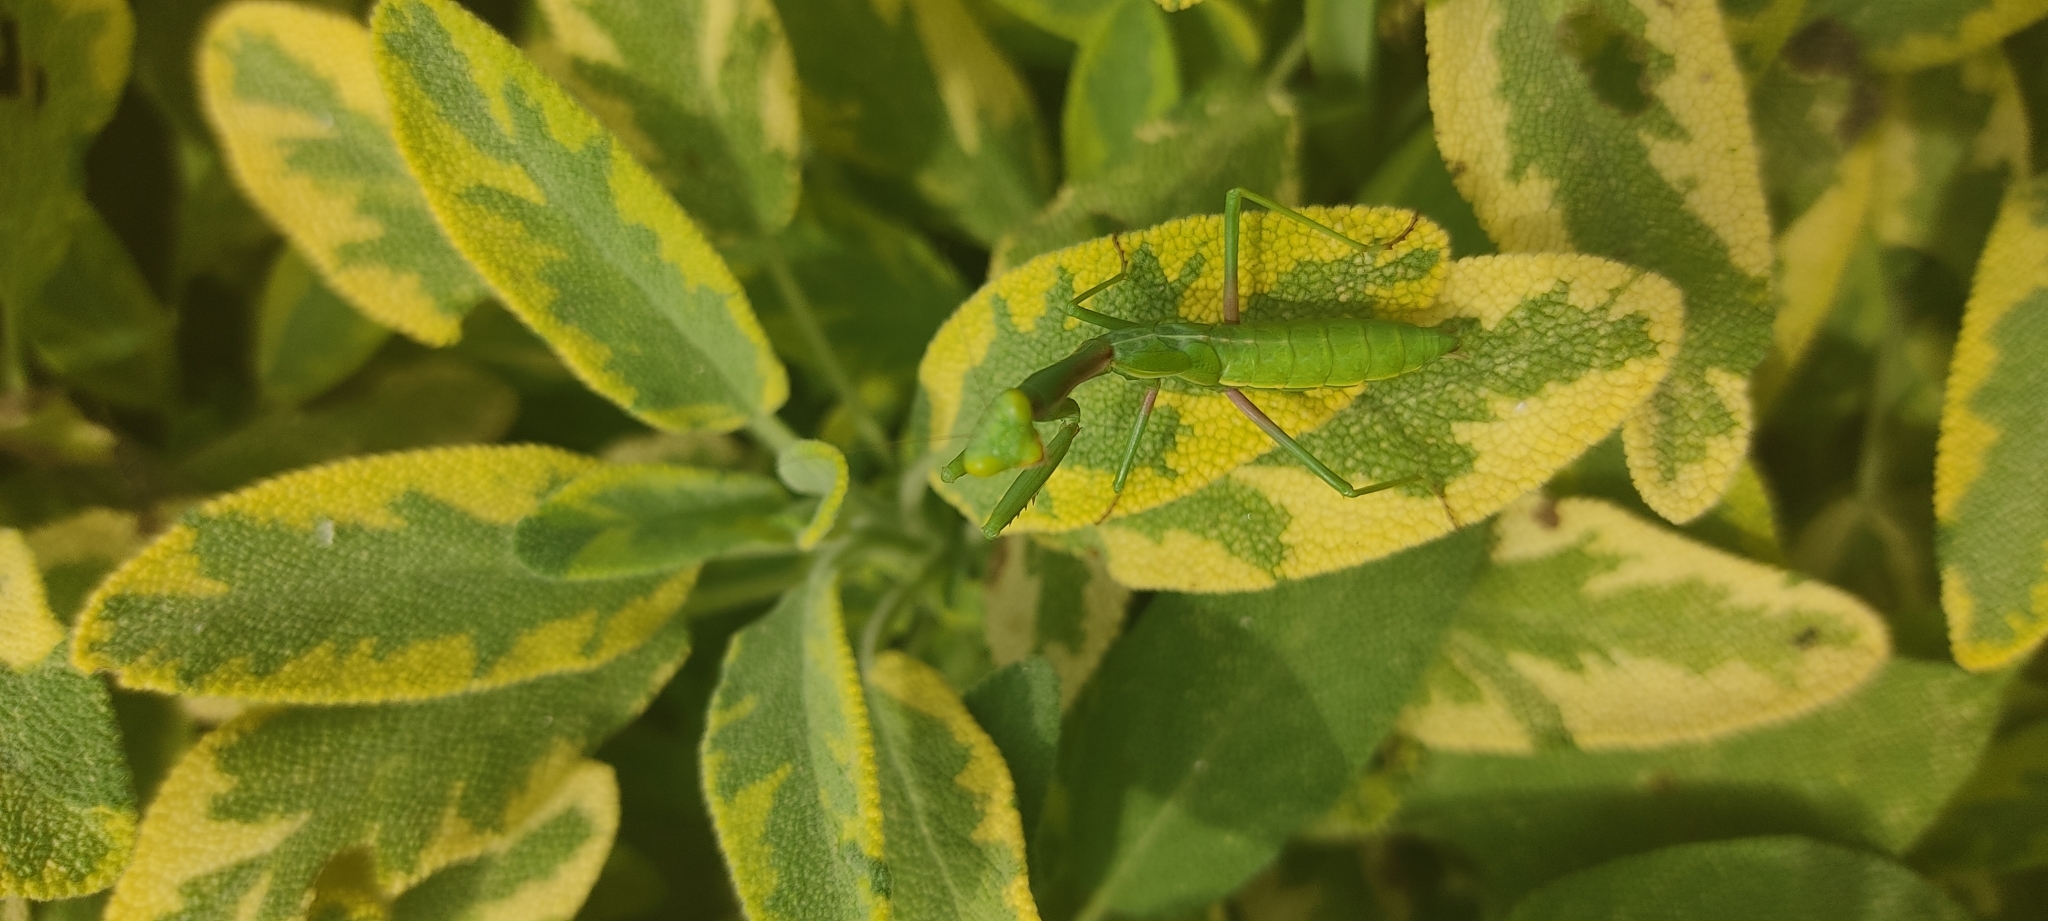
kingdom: Animalia
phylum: Arthropoda
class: Insecta
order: Mantodea
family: Eremiaphilidae
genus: Iris
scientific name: Iris oratoria
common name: Mediterranean mantis
